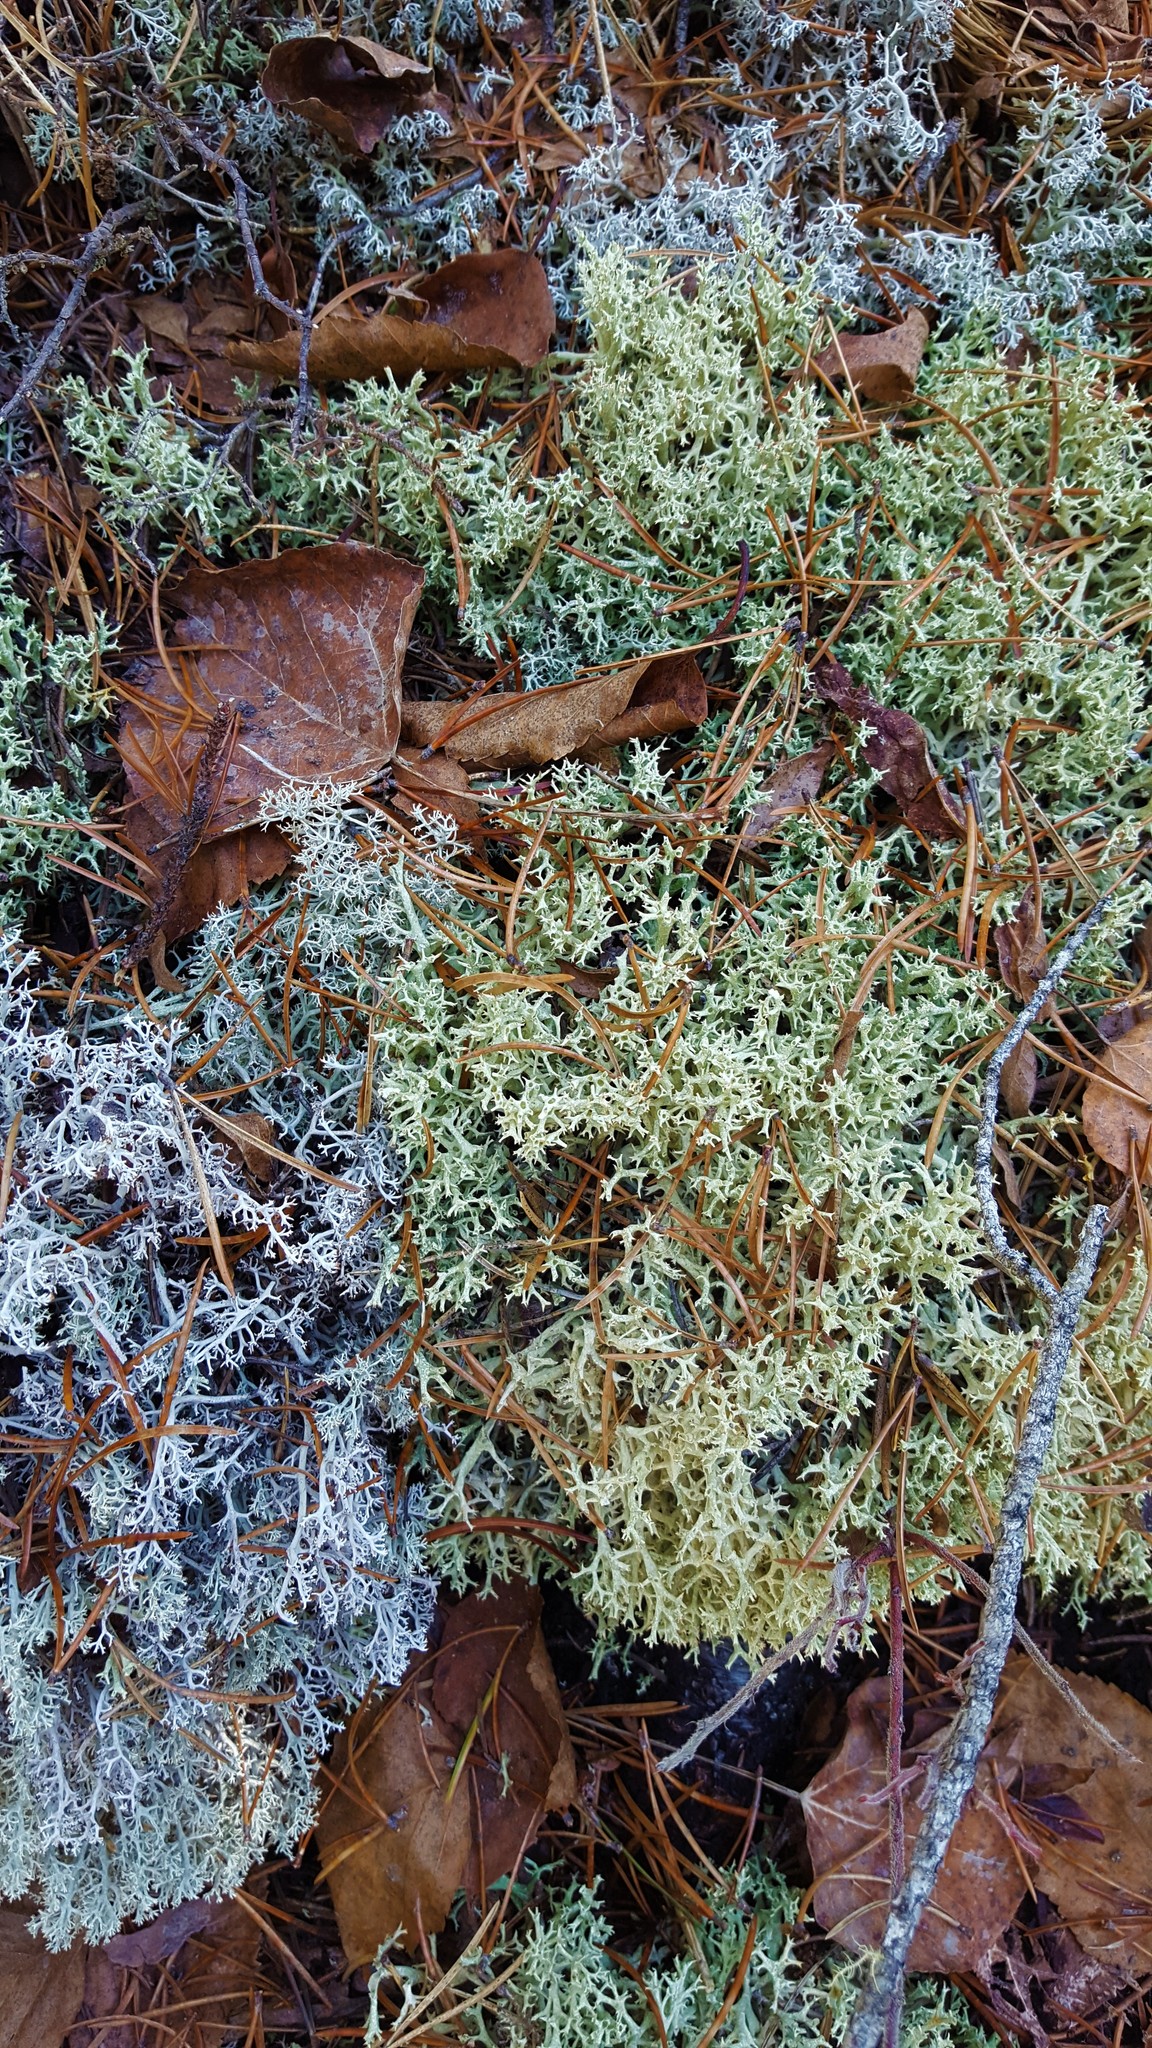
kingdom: Fungi
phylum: Ascomycota
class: Lecanoromycetes
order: Lecanorales
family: Cladoniaceae
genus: Cladonia
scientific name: Cladonia uncialis
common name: Thorn lichen
